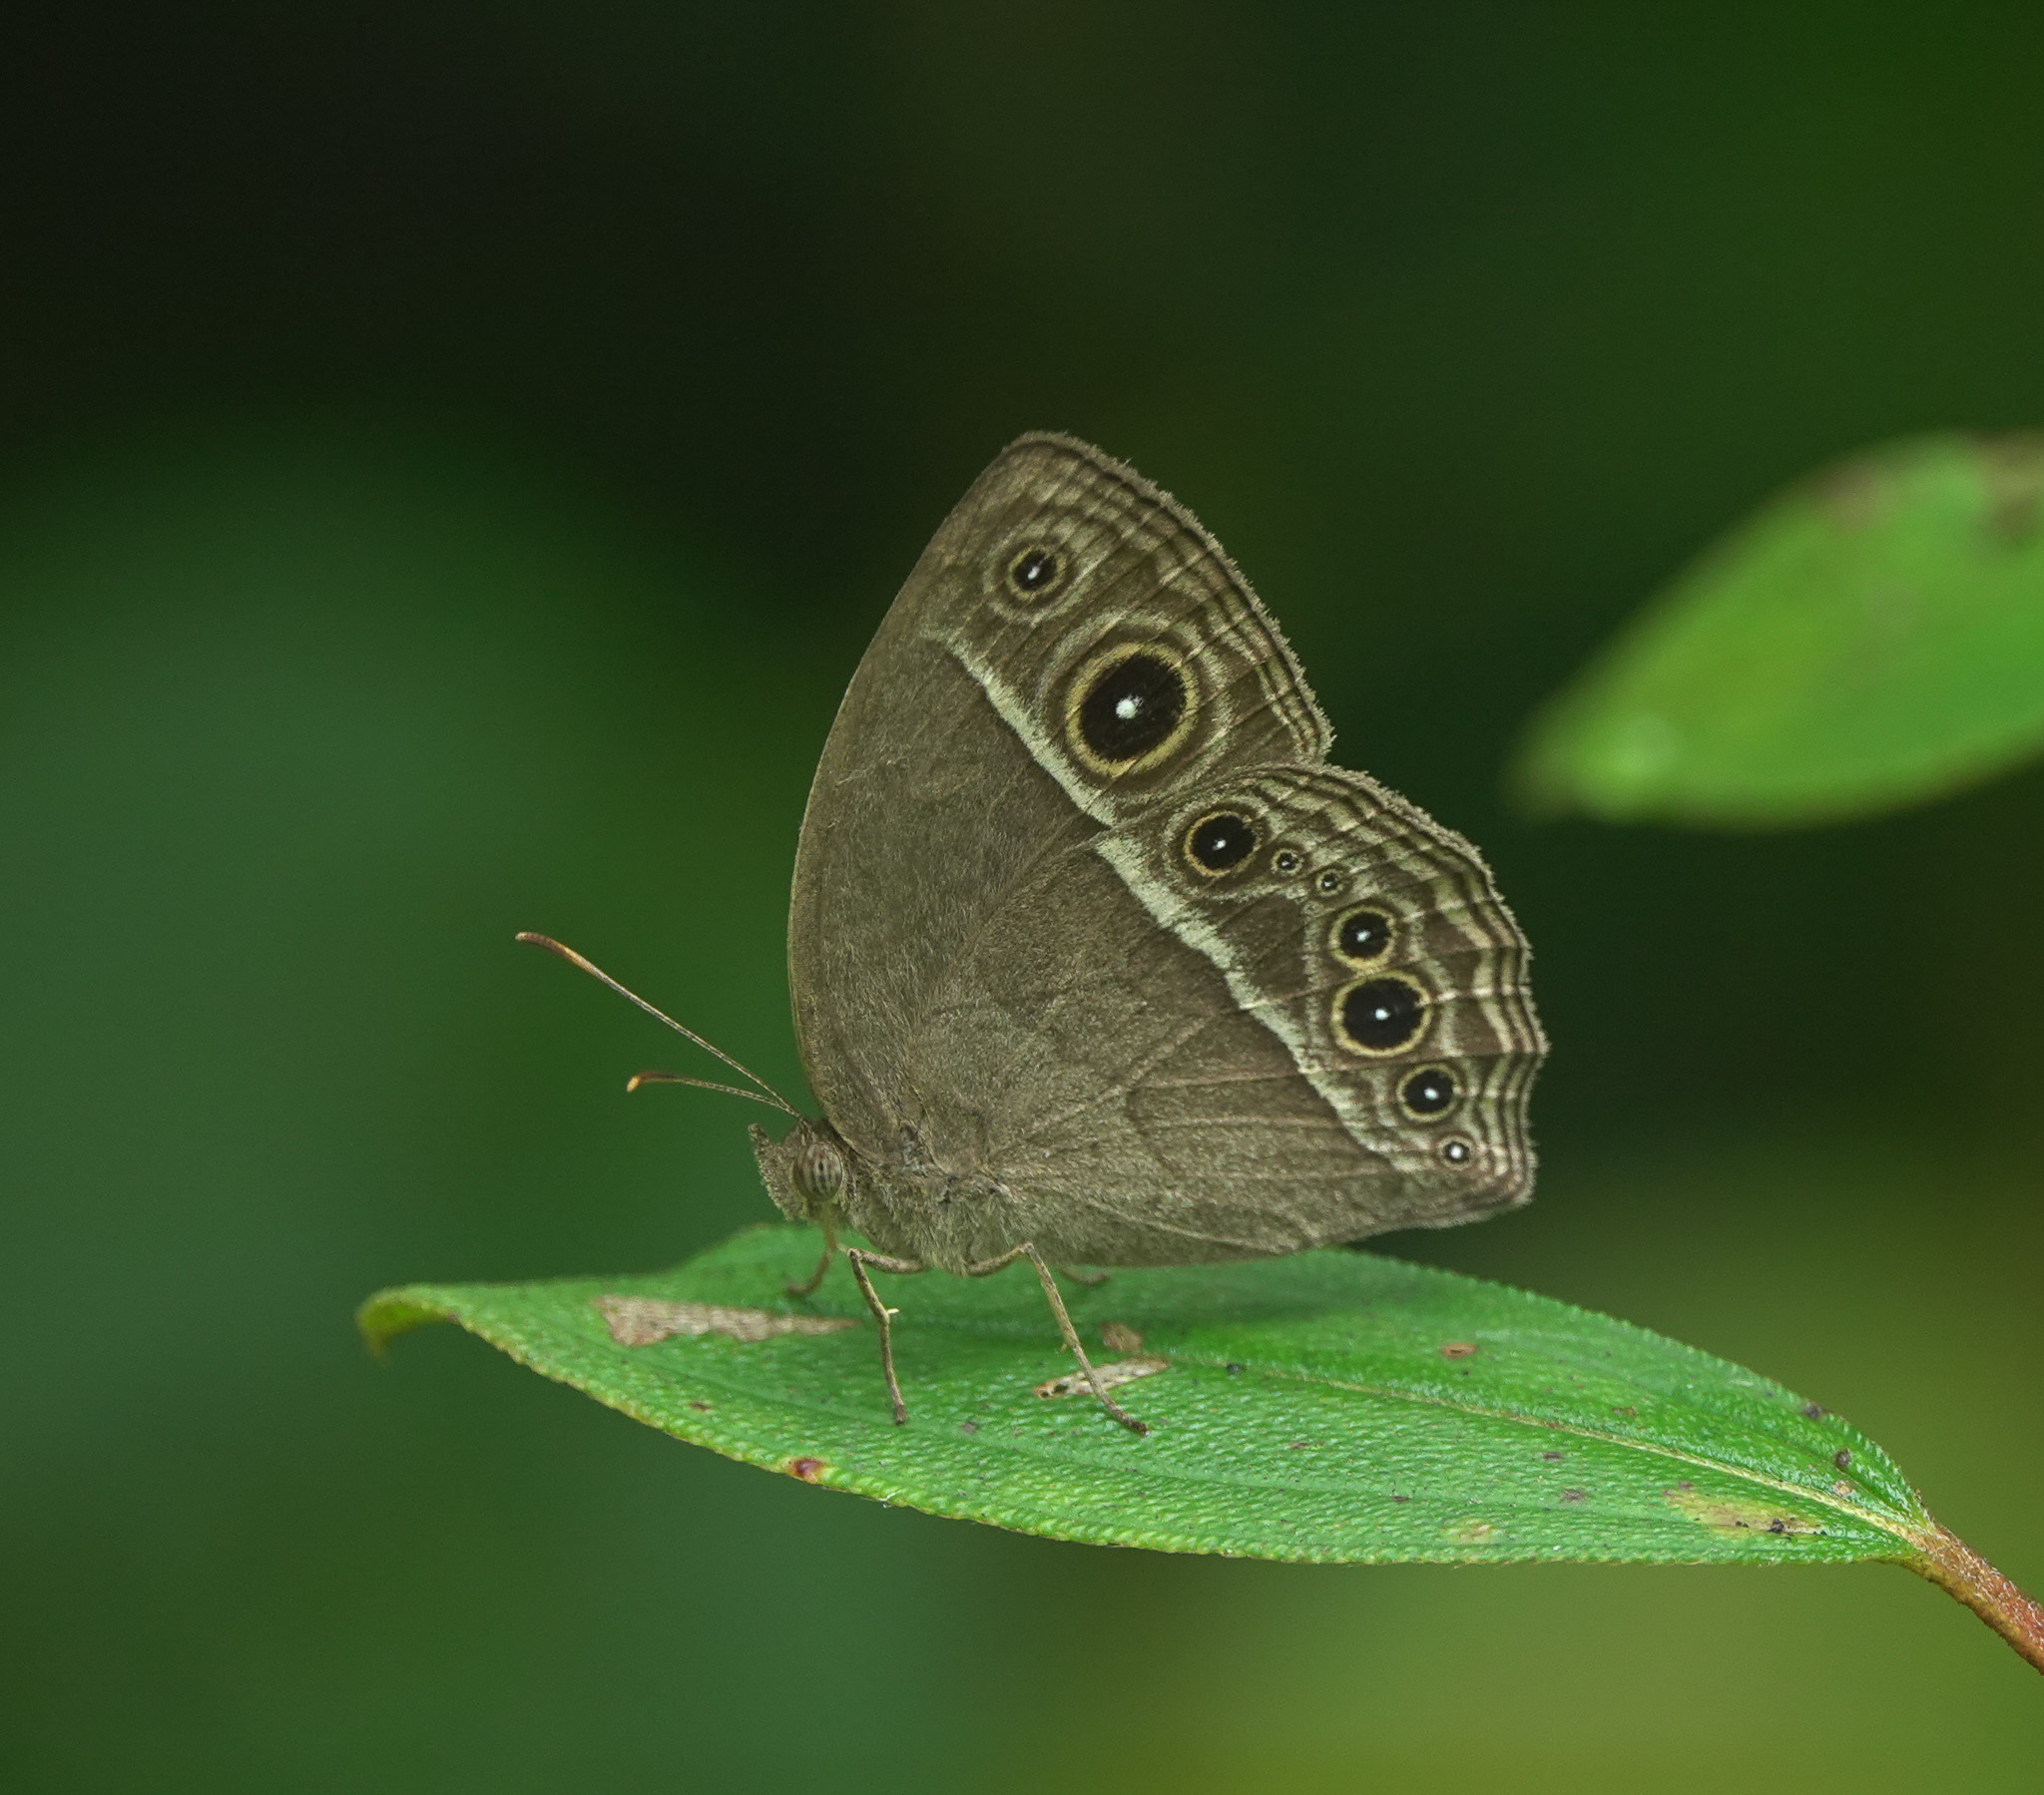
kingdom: Animalia
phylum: Arthropoda
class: Insecta
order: Lepidoptera
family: Nymphalidae
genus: Mycalesis
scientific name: Mycalesis mineus
